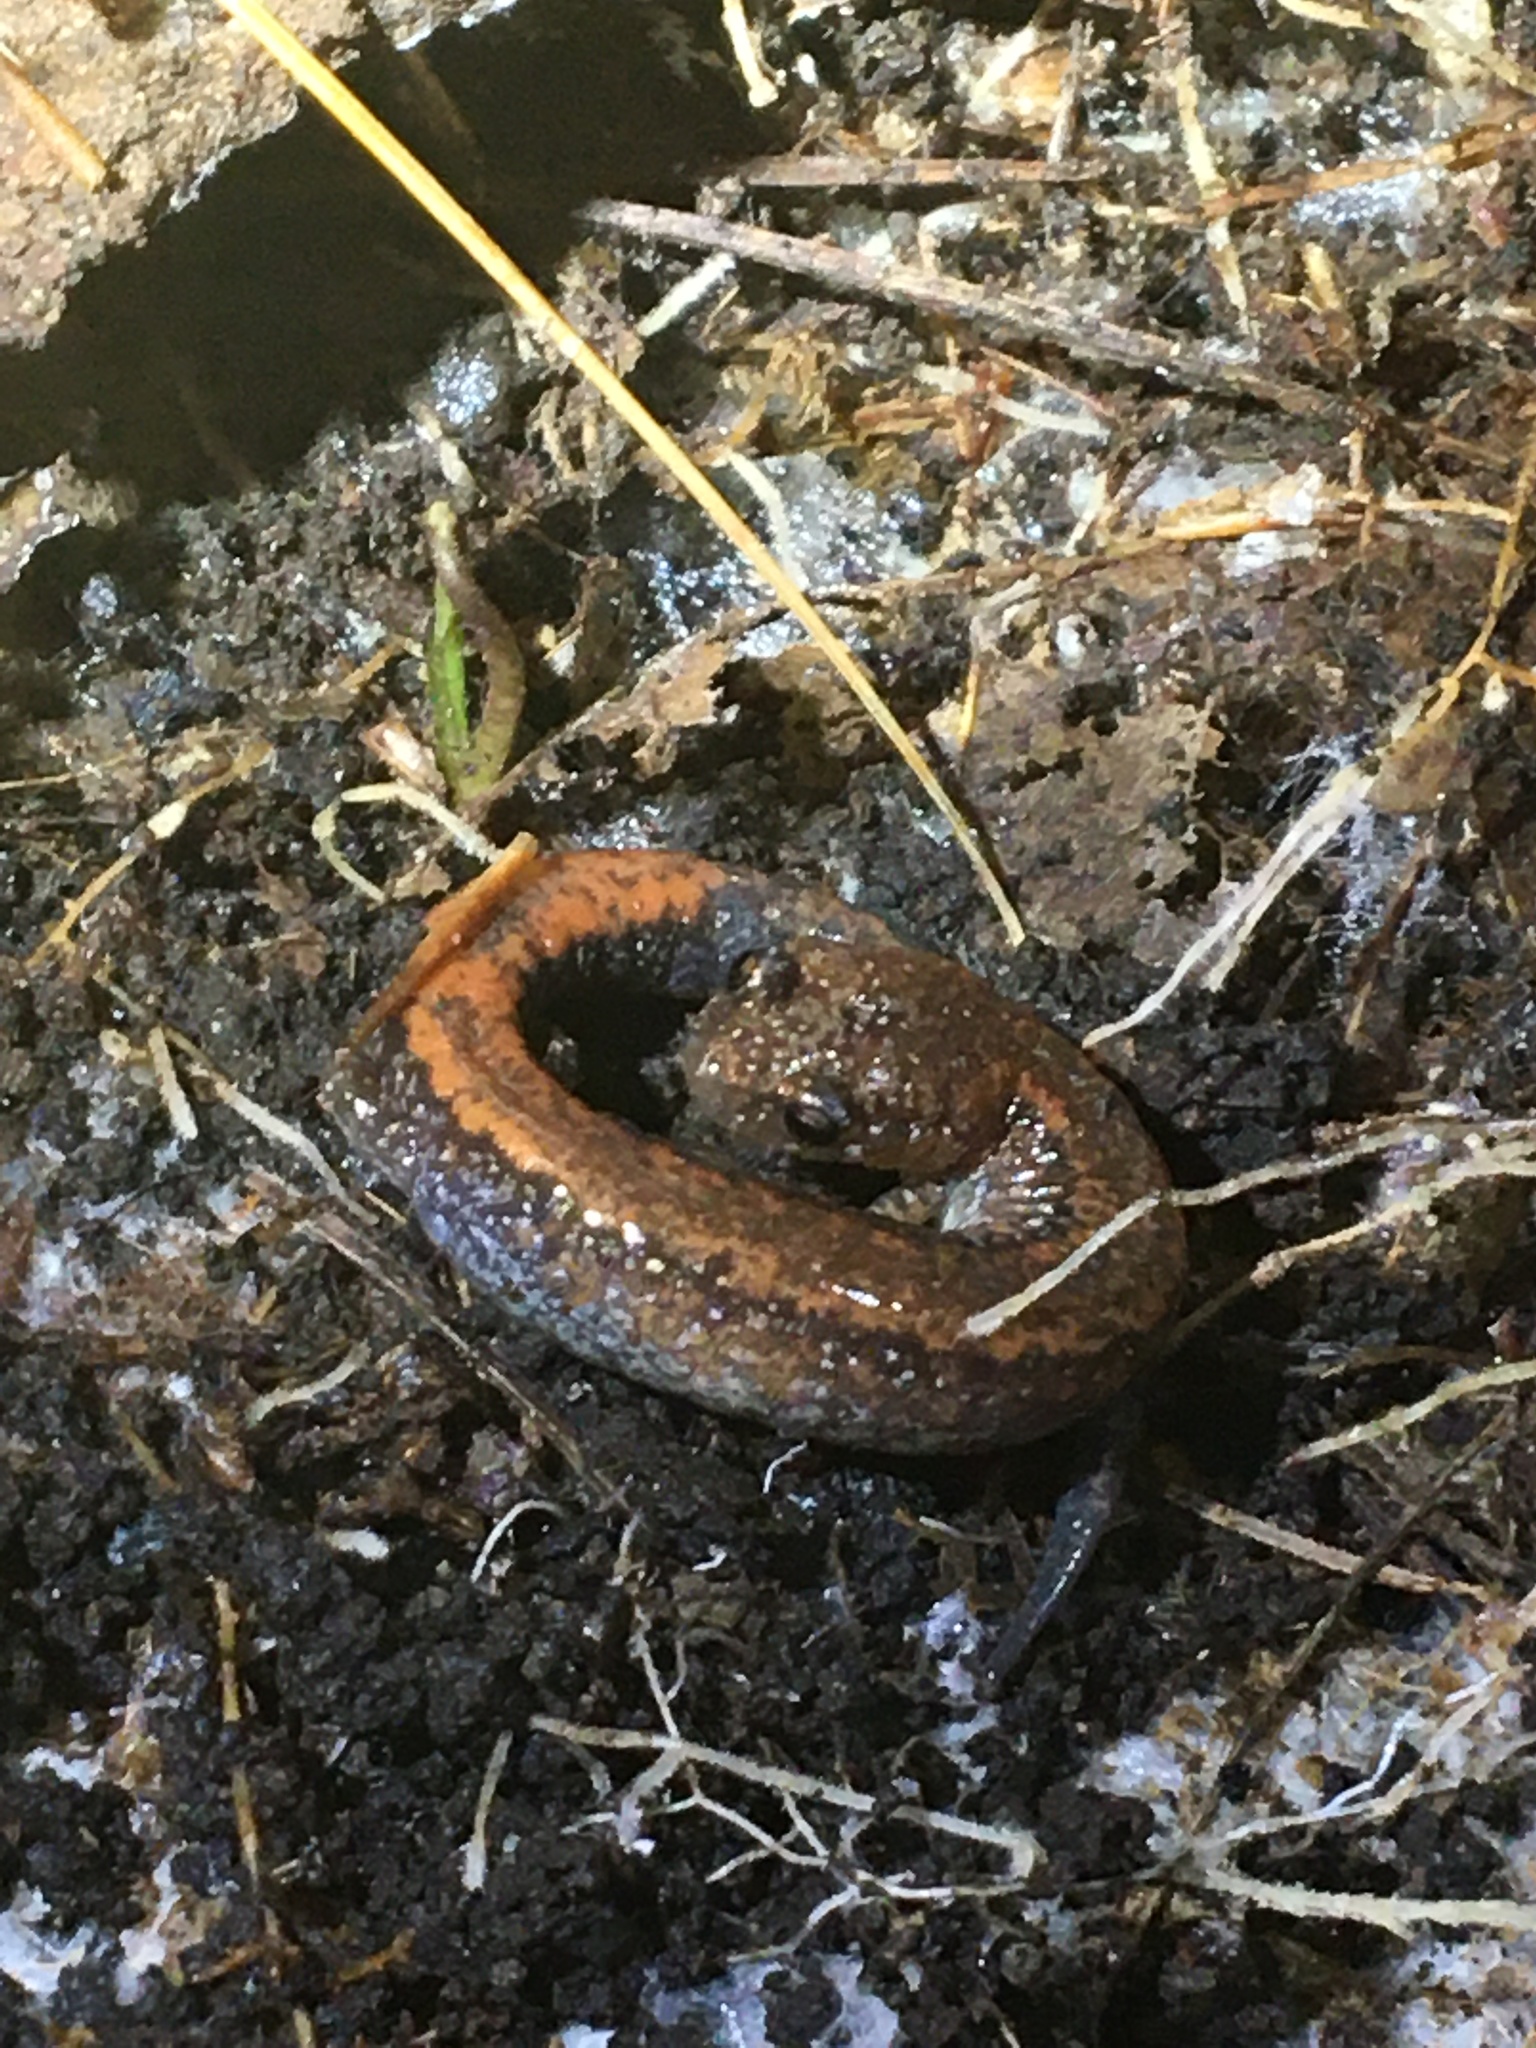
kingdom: Animalia
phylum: Chordata
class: Amphibia
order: Caudata
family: Plethodontidae
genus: Plethodon
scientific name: Plethodon cinereus
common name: Redback salamander
